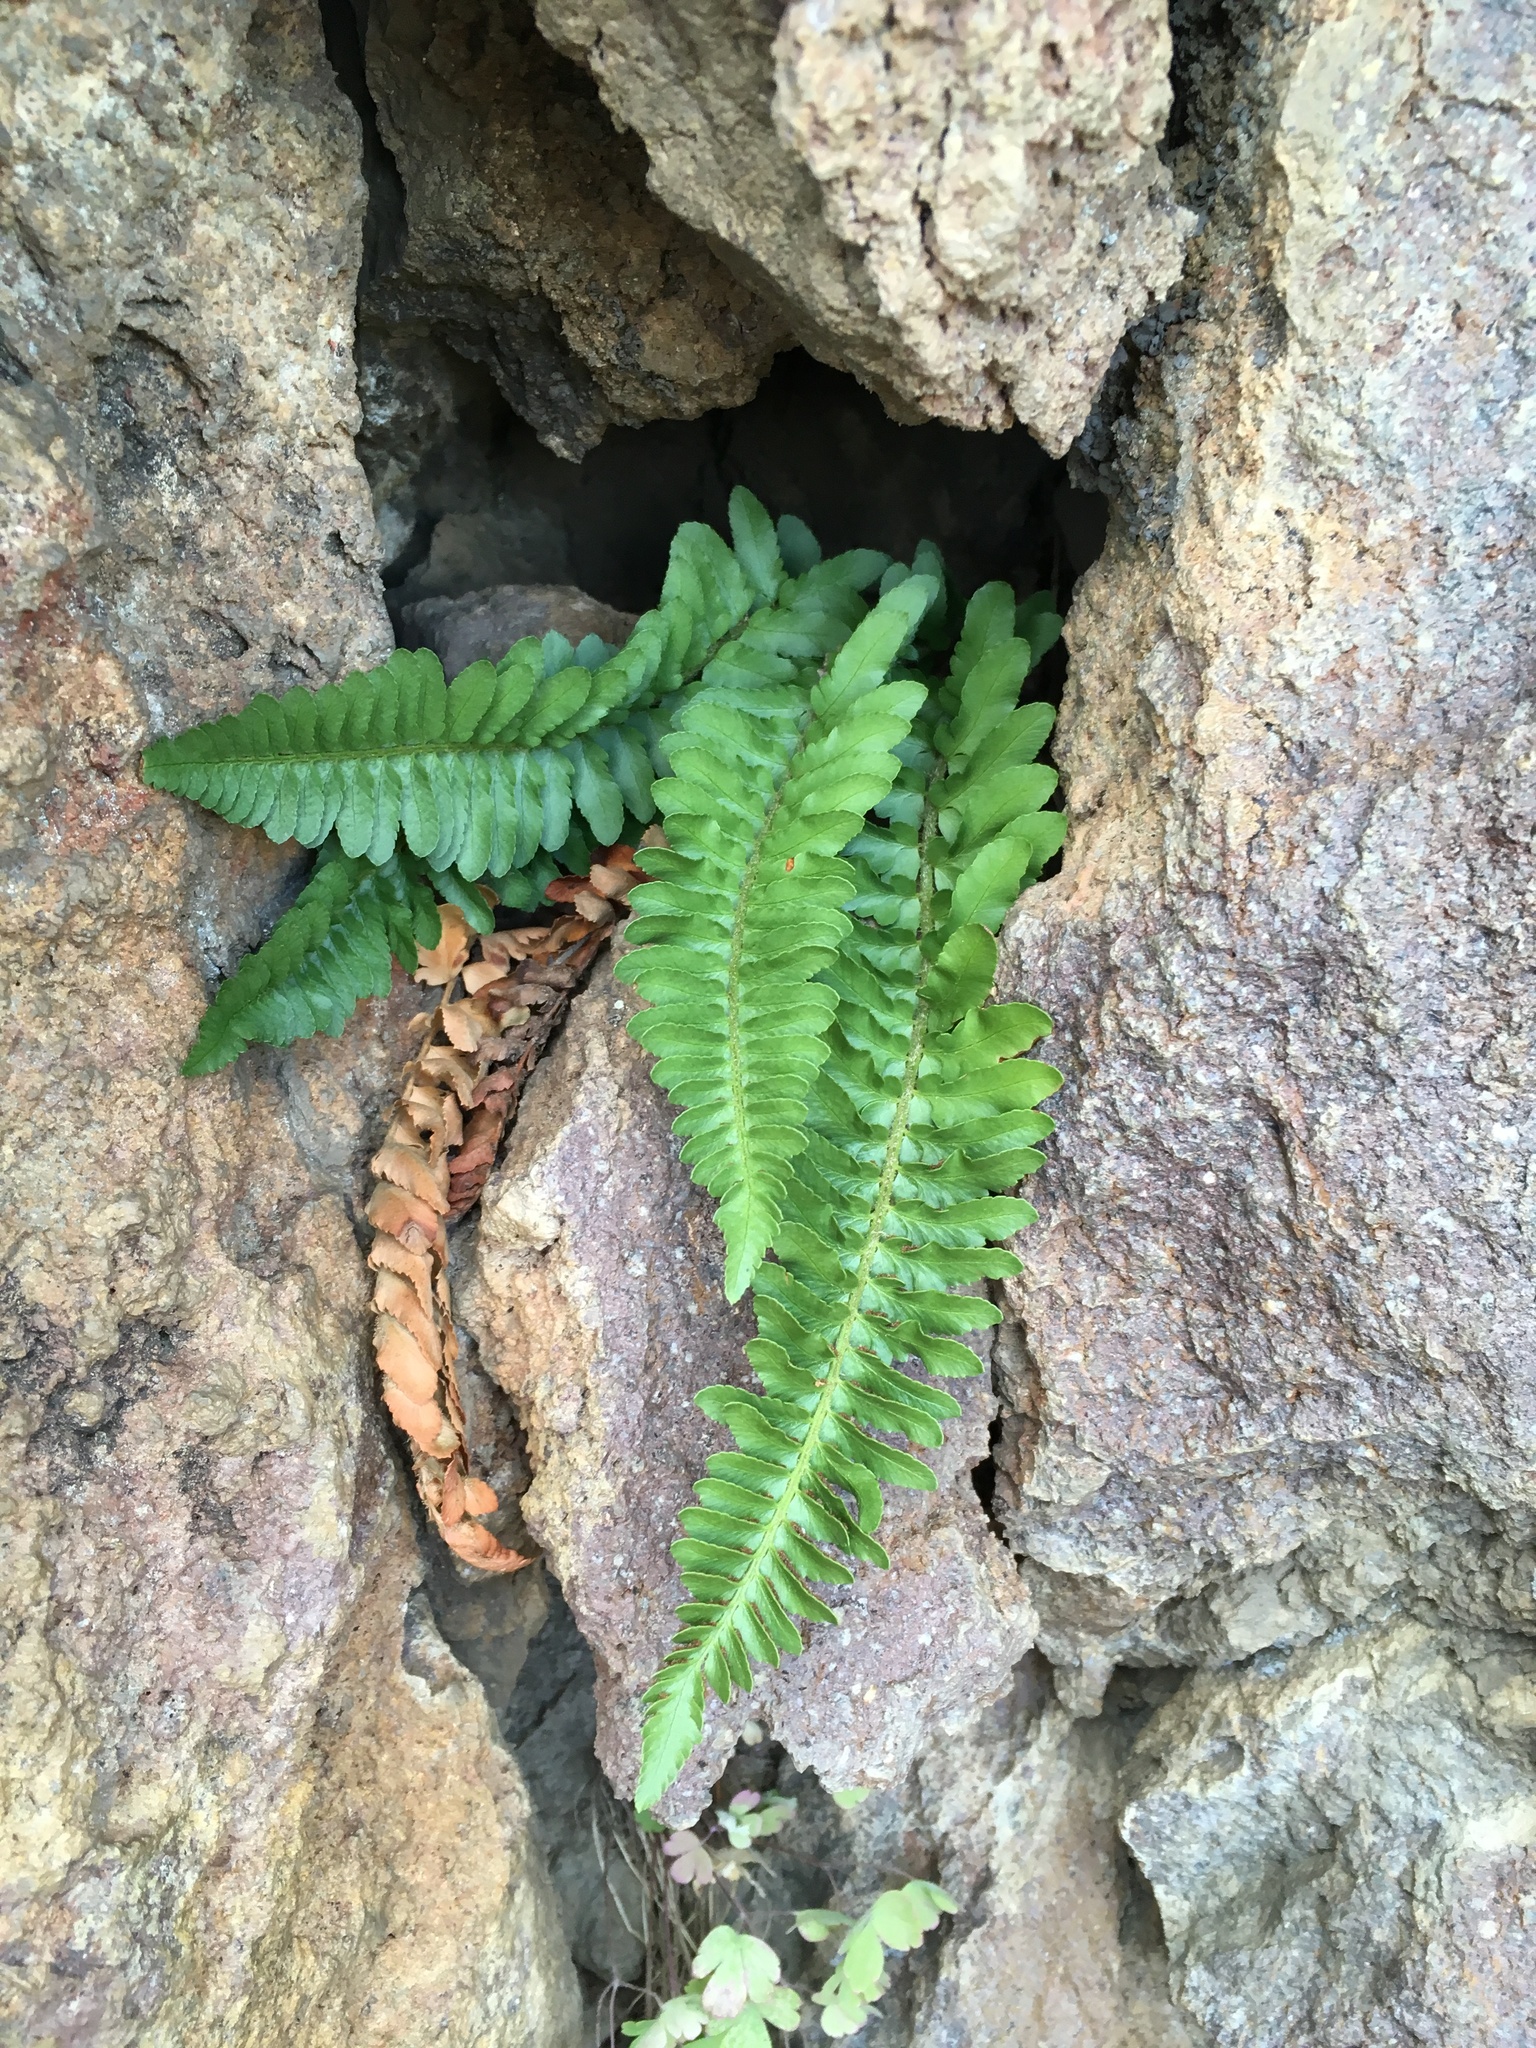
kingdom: Plantae
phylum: Tracheophyta
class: Polypodiopsida
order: Polypodiales
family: Dryopteridaceae
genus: Polystichum
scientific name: Polystichum scopulinum
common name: Eaton's shield fern
